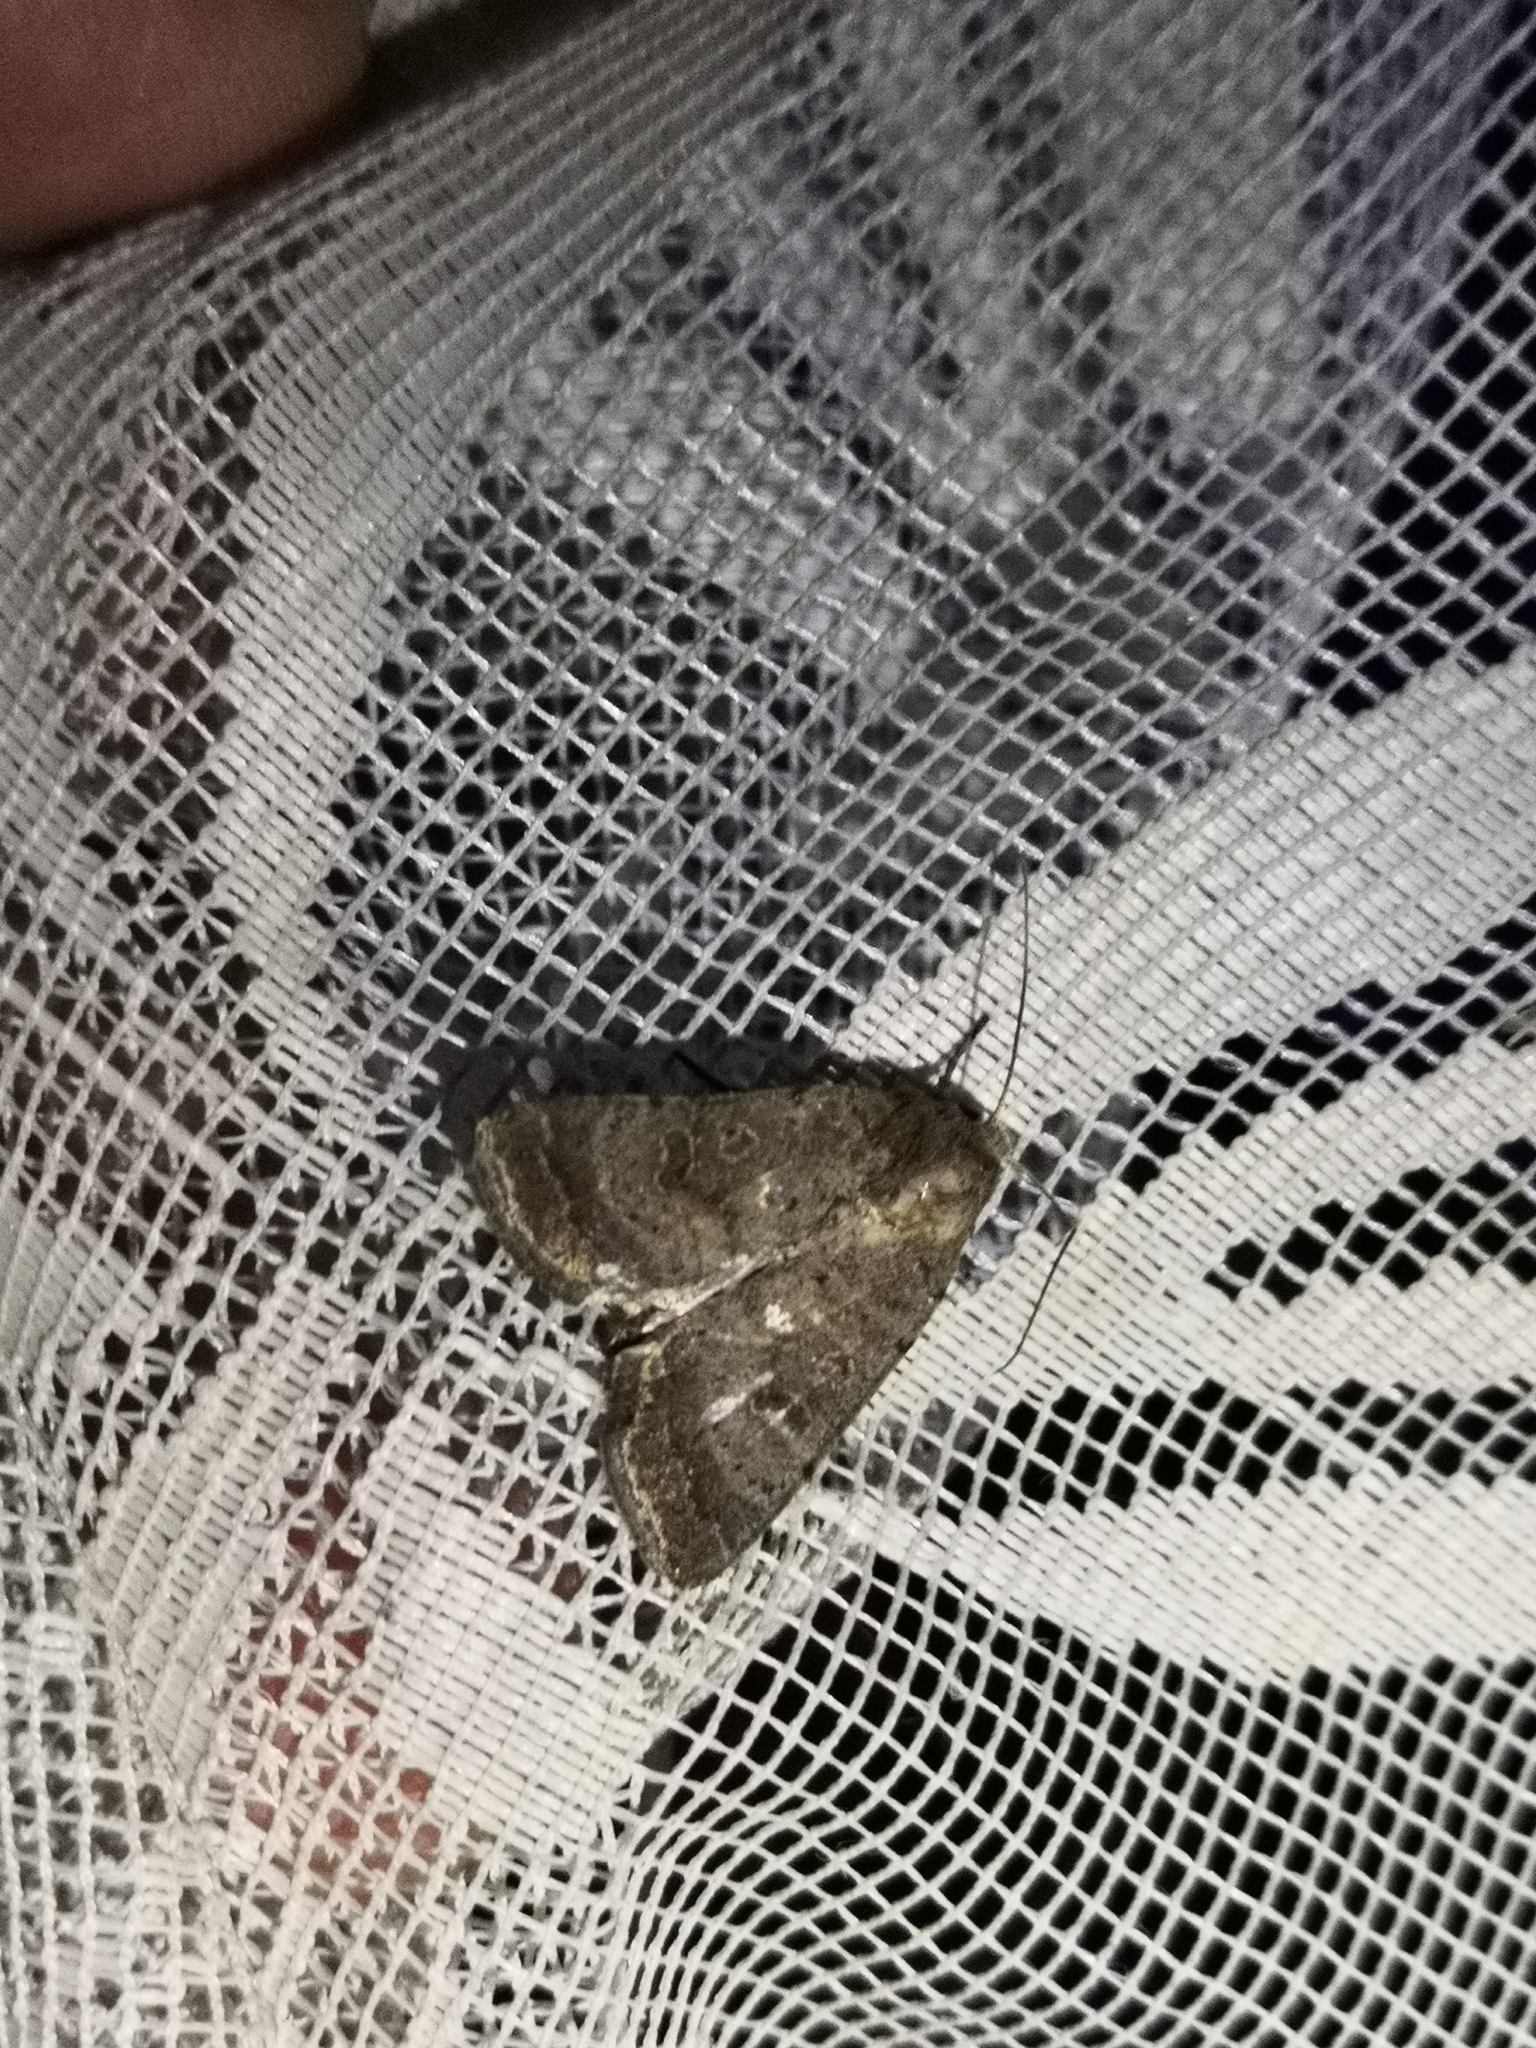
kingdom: Animalia
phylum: Arthropoda
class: Insecta
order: Lepidoptera
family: Noctuidae
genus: Hoplodrina
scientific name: Hoplodrina blanda
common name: Rustic
